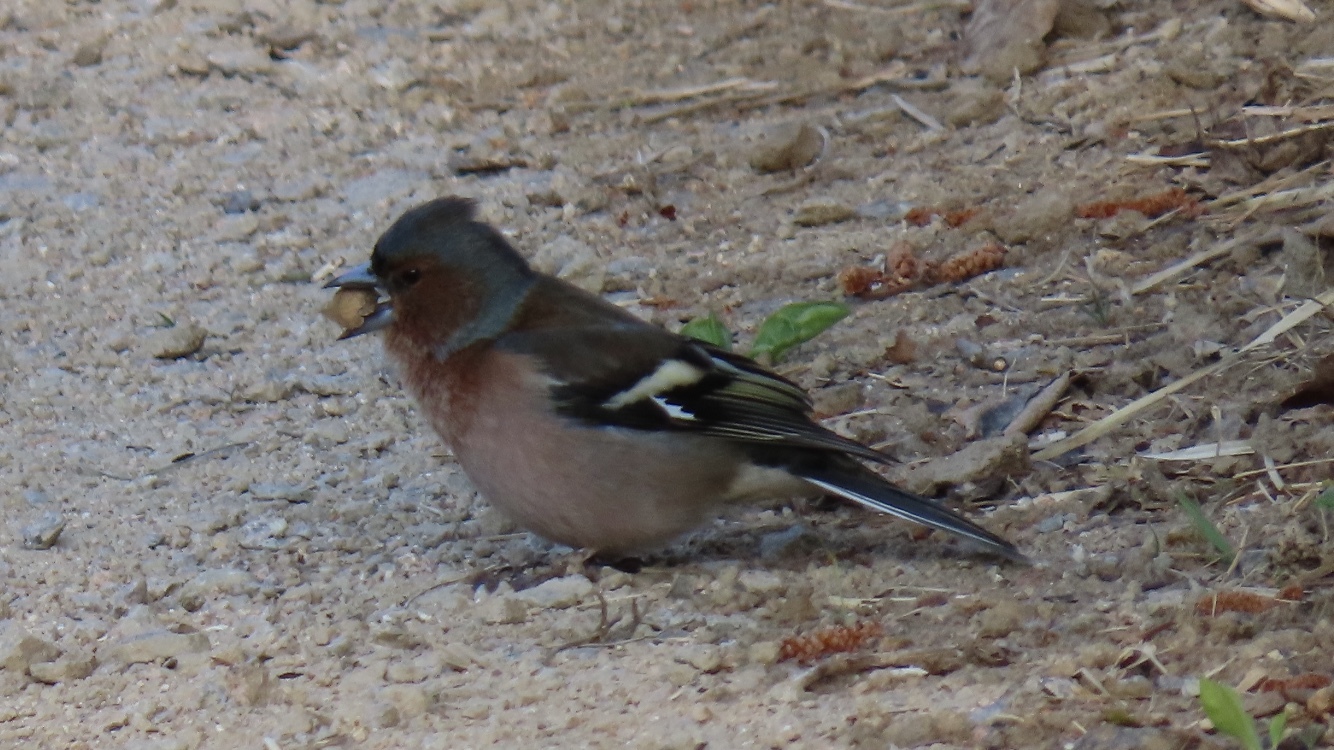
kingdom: Animalia
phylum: Chordata
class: Aves
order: Passeriformes
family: Fringillidae
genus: Fringilla
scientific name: Fringilla coelebs
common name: Common chaffinch
